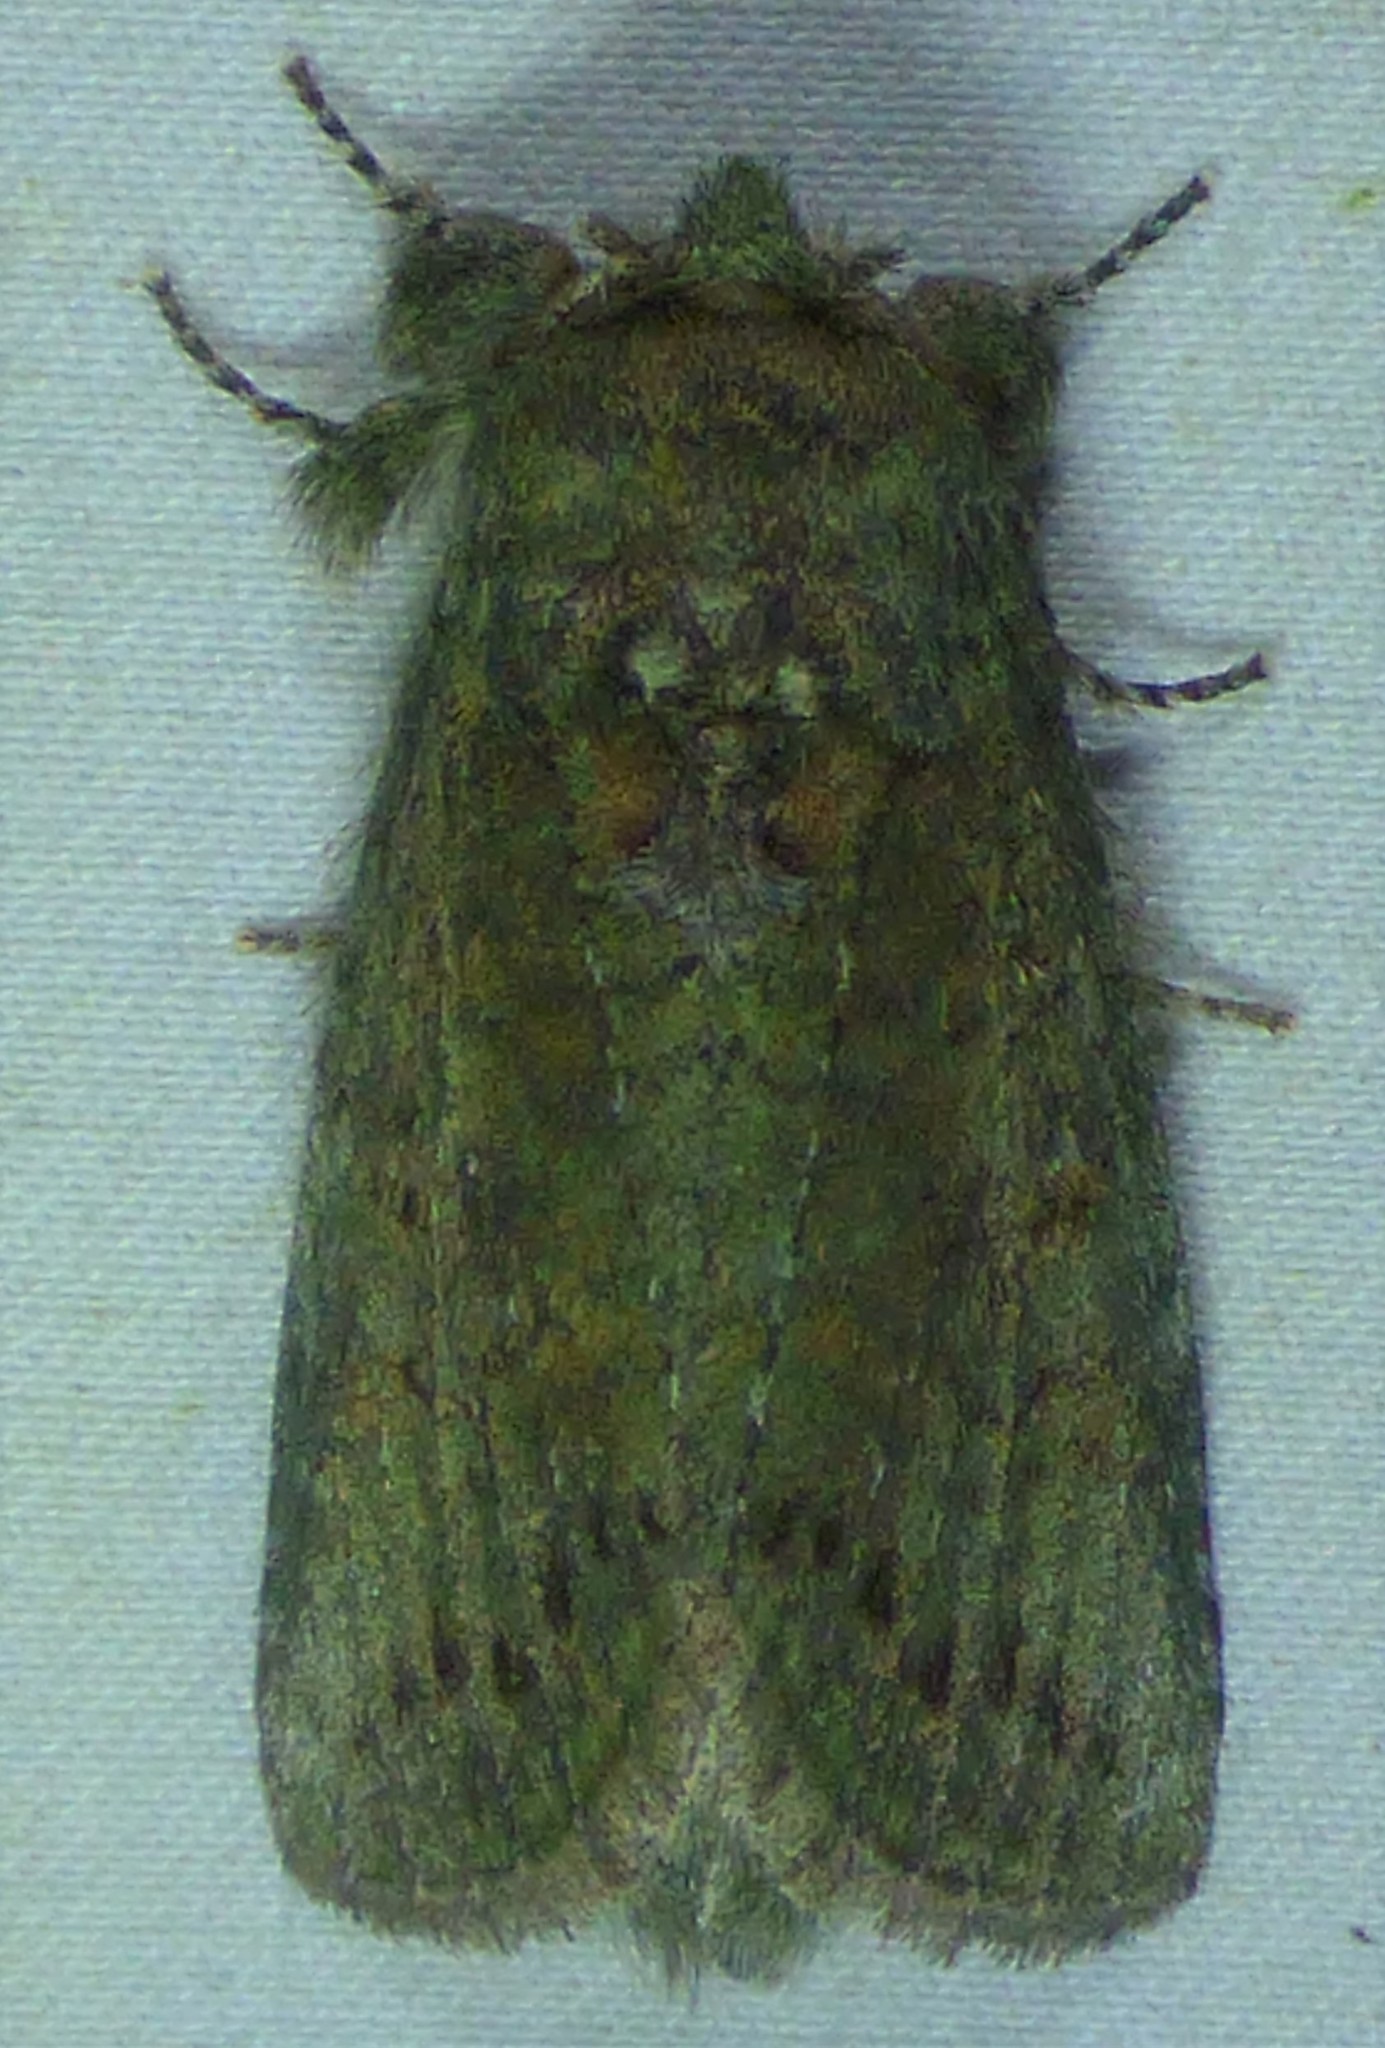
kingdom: Animalia
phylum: Arthropoda
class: Insecta
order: Lepidoptera
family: Notodontidae
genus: Disphragis
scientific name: Disphragis Cecrita biundata
